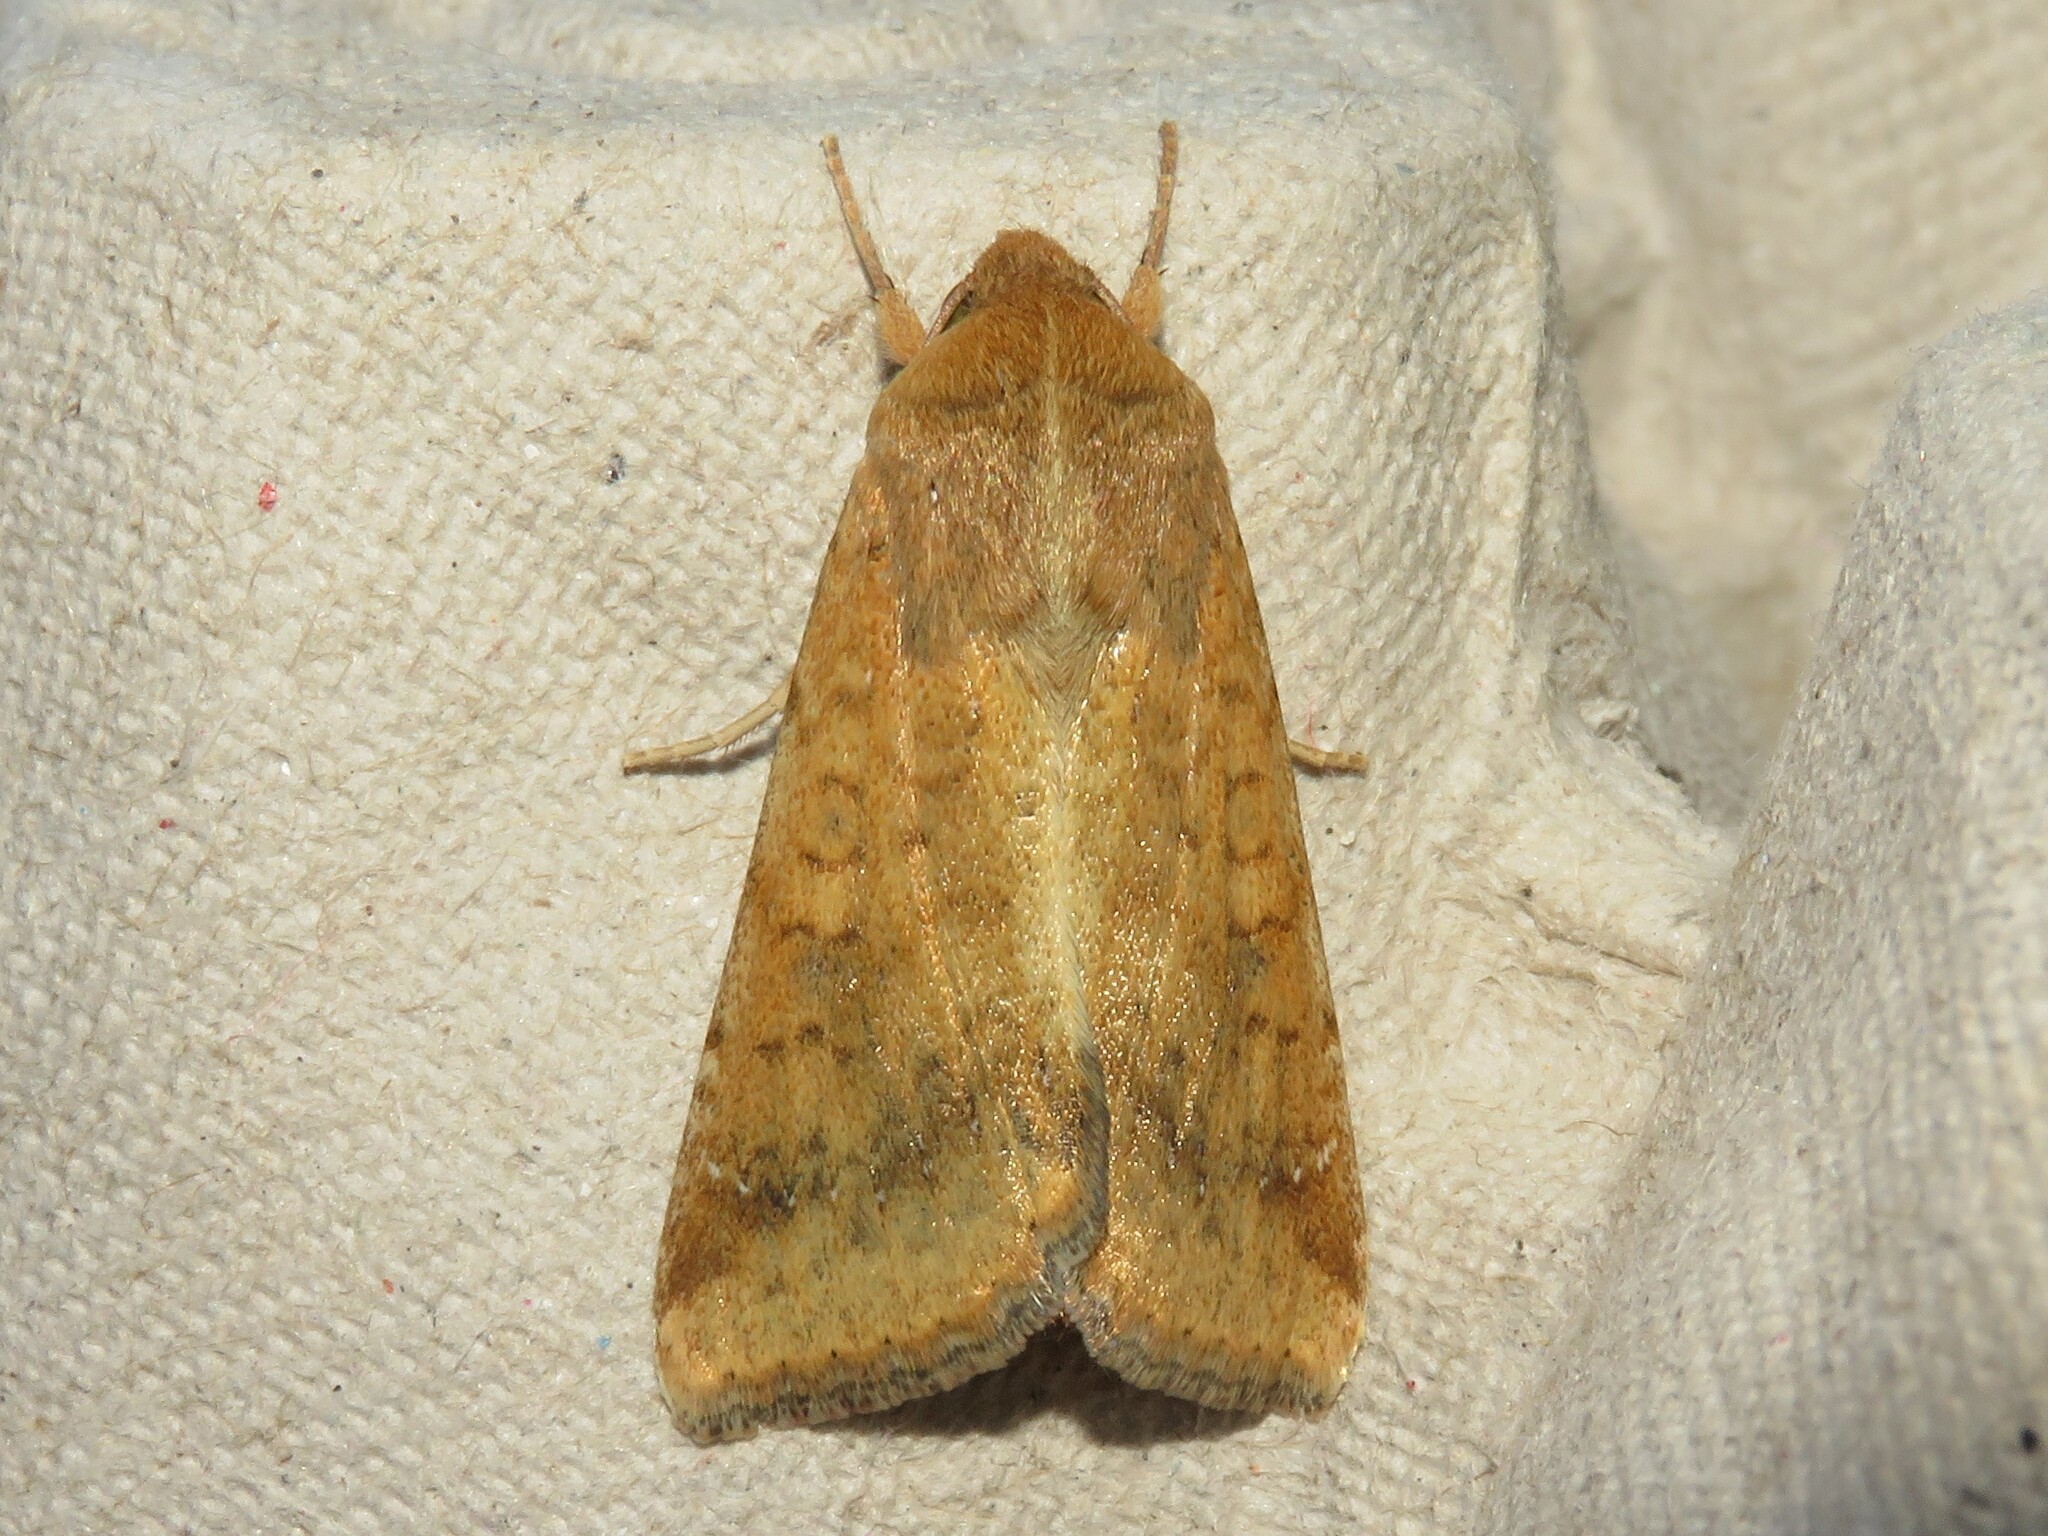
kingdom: Animalia
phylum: Arthropoda
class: Insecta
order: Lepidoptera
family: Noctuidae
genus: Helicoverpa
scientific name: Helicoverpa zea
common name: Bollworm
